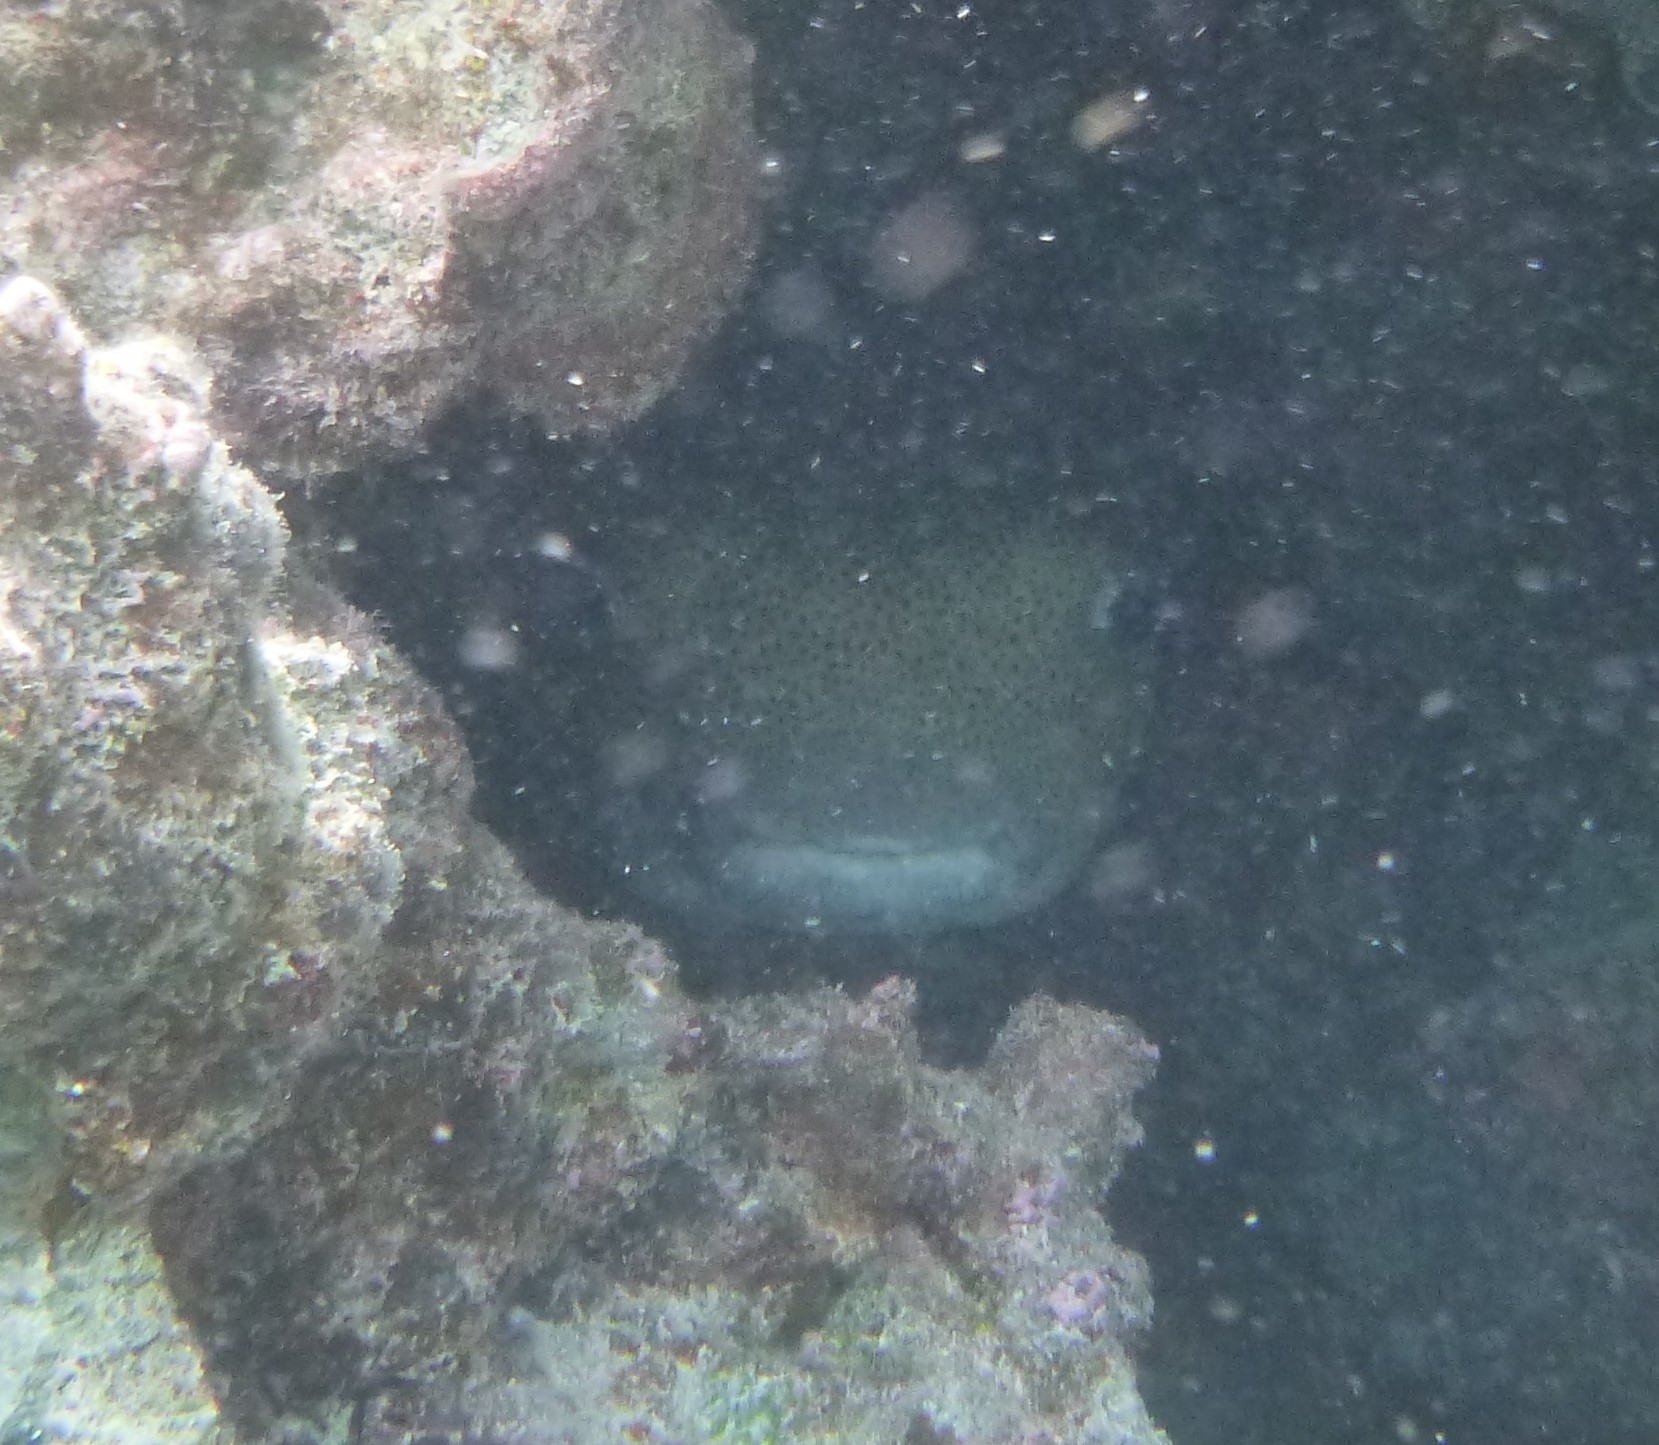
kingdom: Animalia
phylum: Chordata
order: Tetraodontiformes
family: Diodontidae
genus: Diodon
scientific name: Diodon hystrix
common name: Giant porcupinefish
